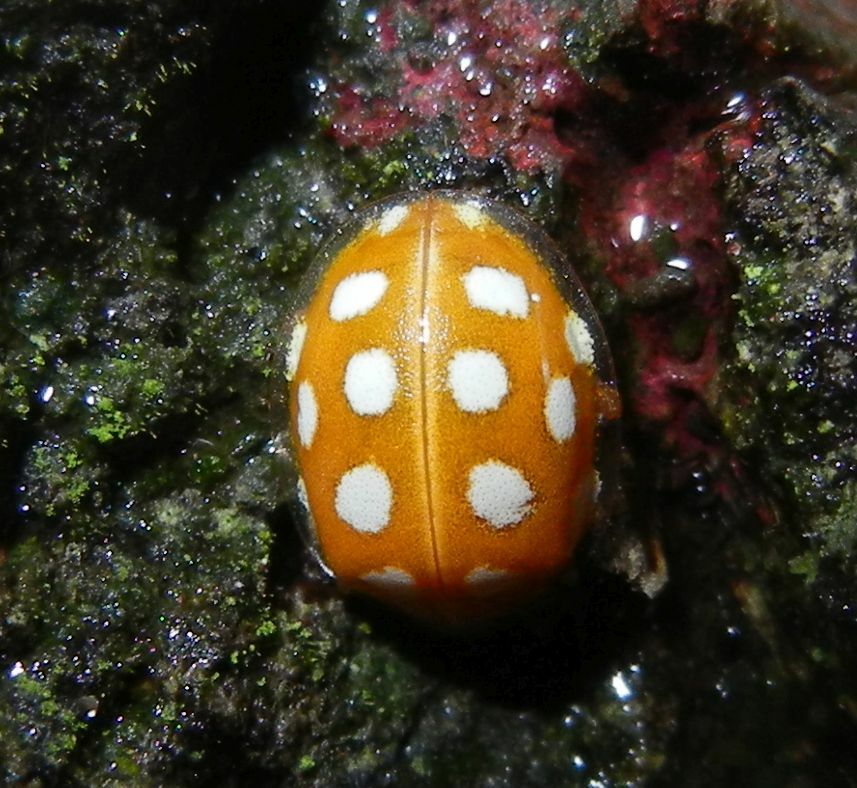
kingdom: Animalia
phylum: Arthropoda
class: Insecta
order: Coleoptera
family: Coccinellidae
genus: Halyzia
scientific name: Halyzia sedecimguttata
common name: Orange ladybird
